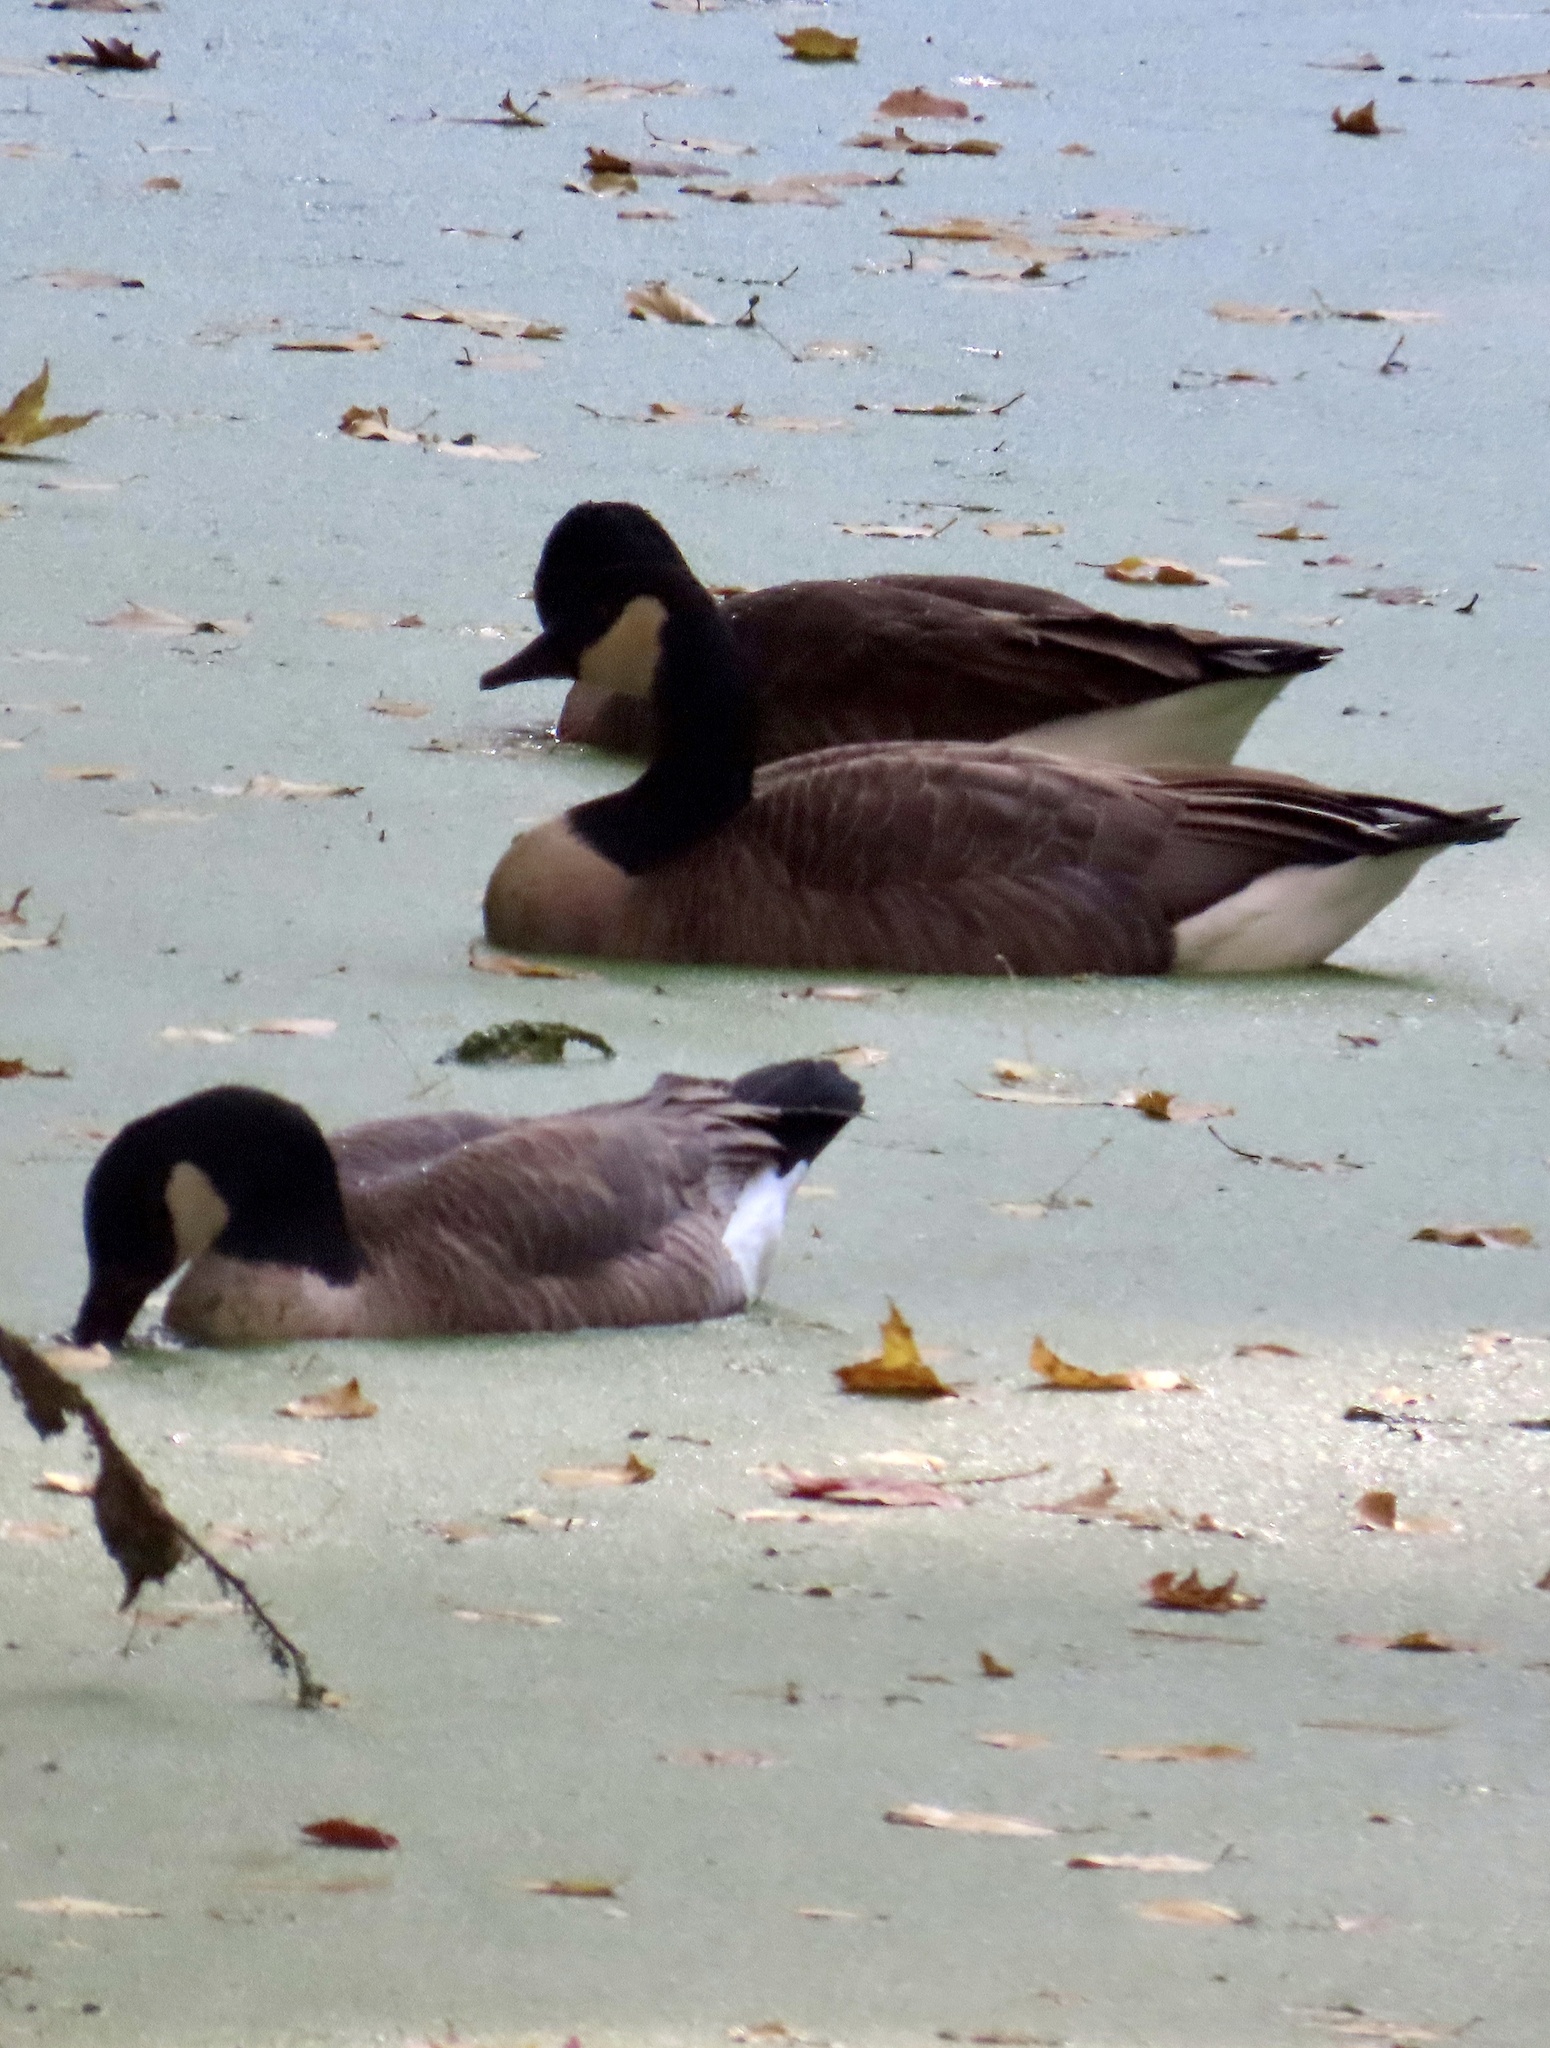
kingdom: Animalia
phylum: Chordata
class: Aves
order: Anseriformes
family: Anatidae
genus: Branta
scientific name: Branta canadensis
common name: Canada goose
